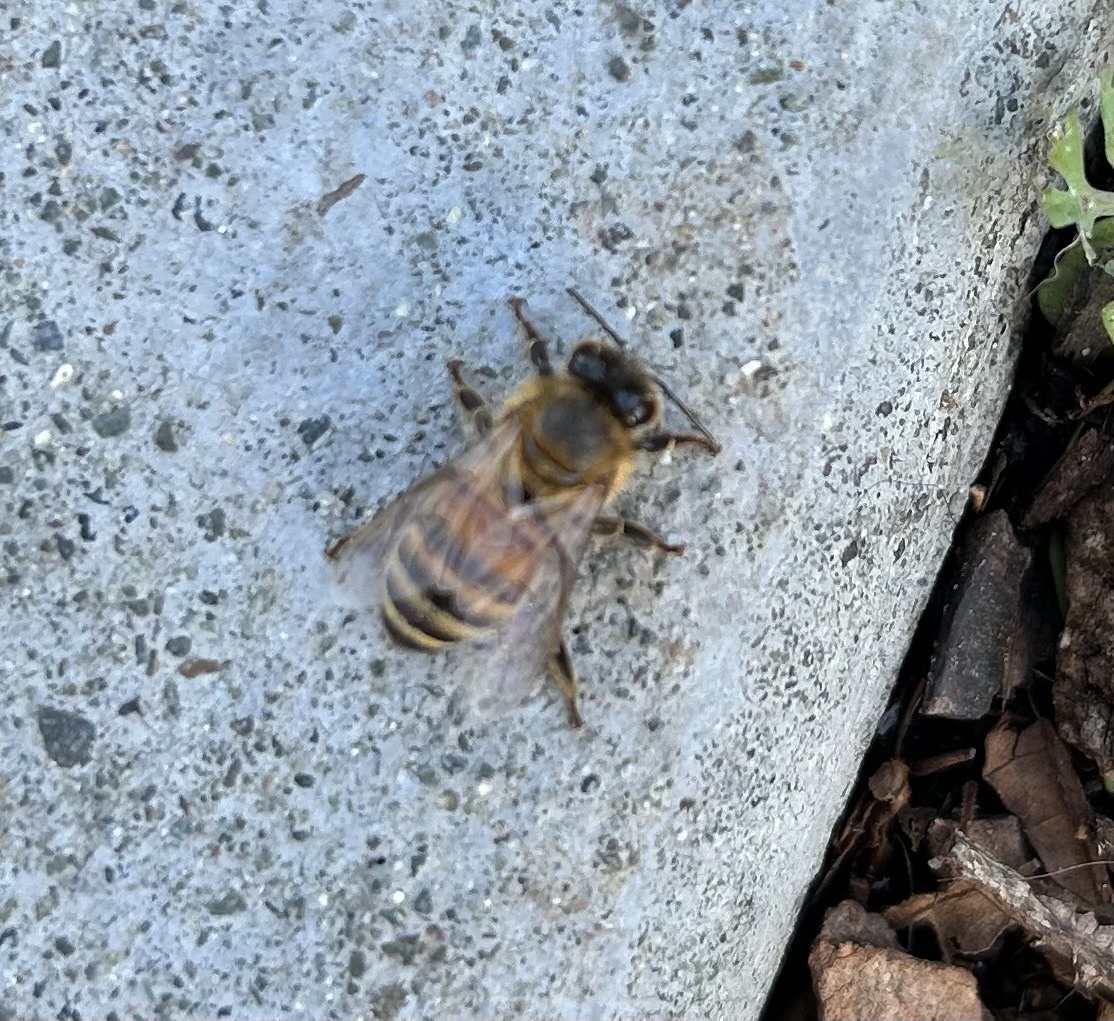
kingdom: Animalia
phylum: Arthropoda
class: Insecta
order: Hymenoptera
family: Apidae
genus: Apis
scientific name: Apis mellifera
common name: Honey bee
